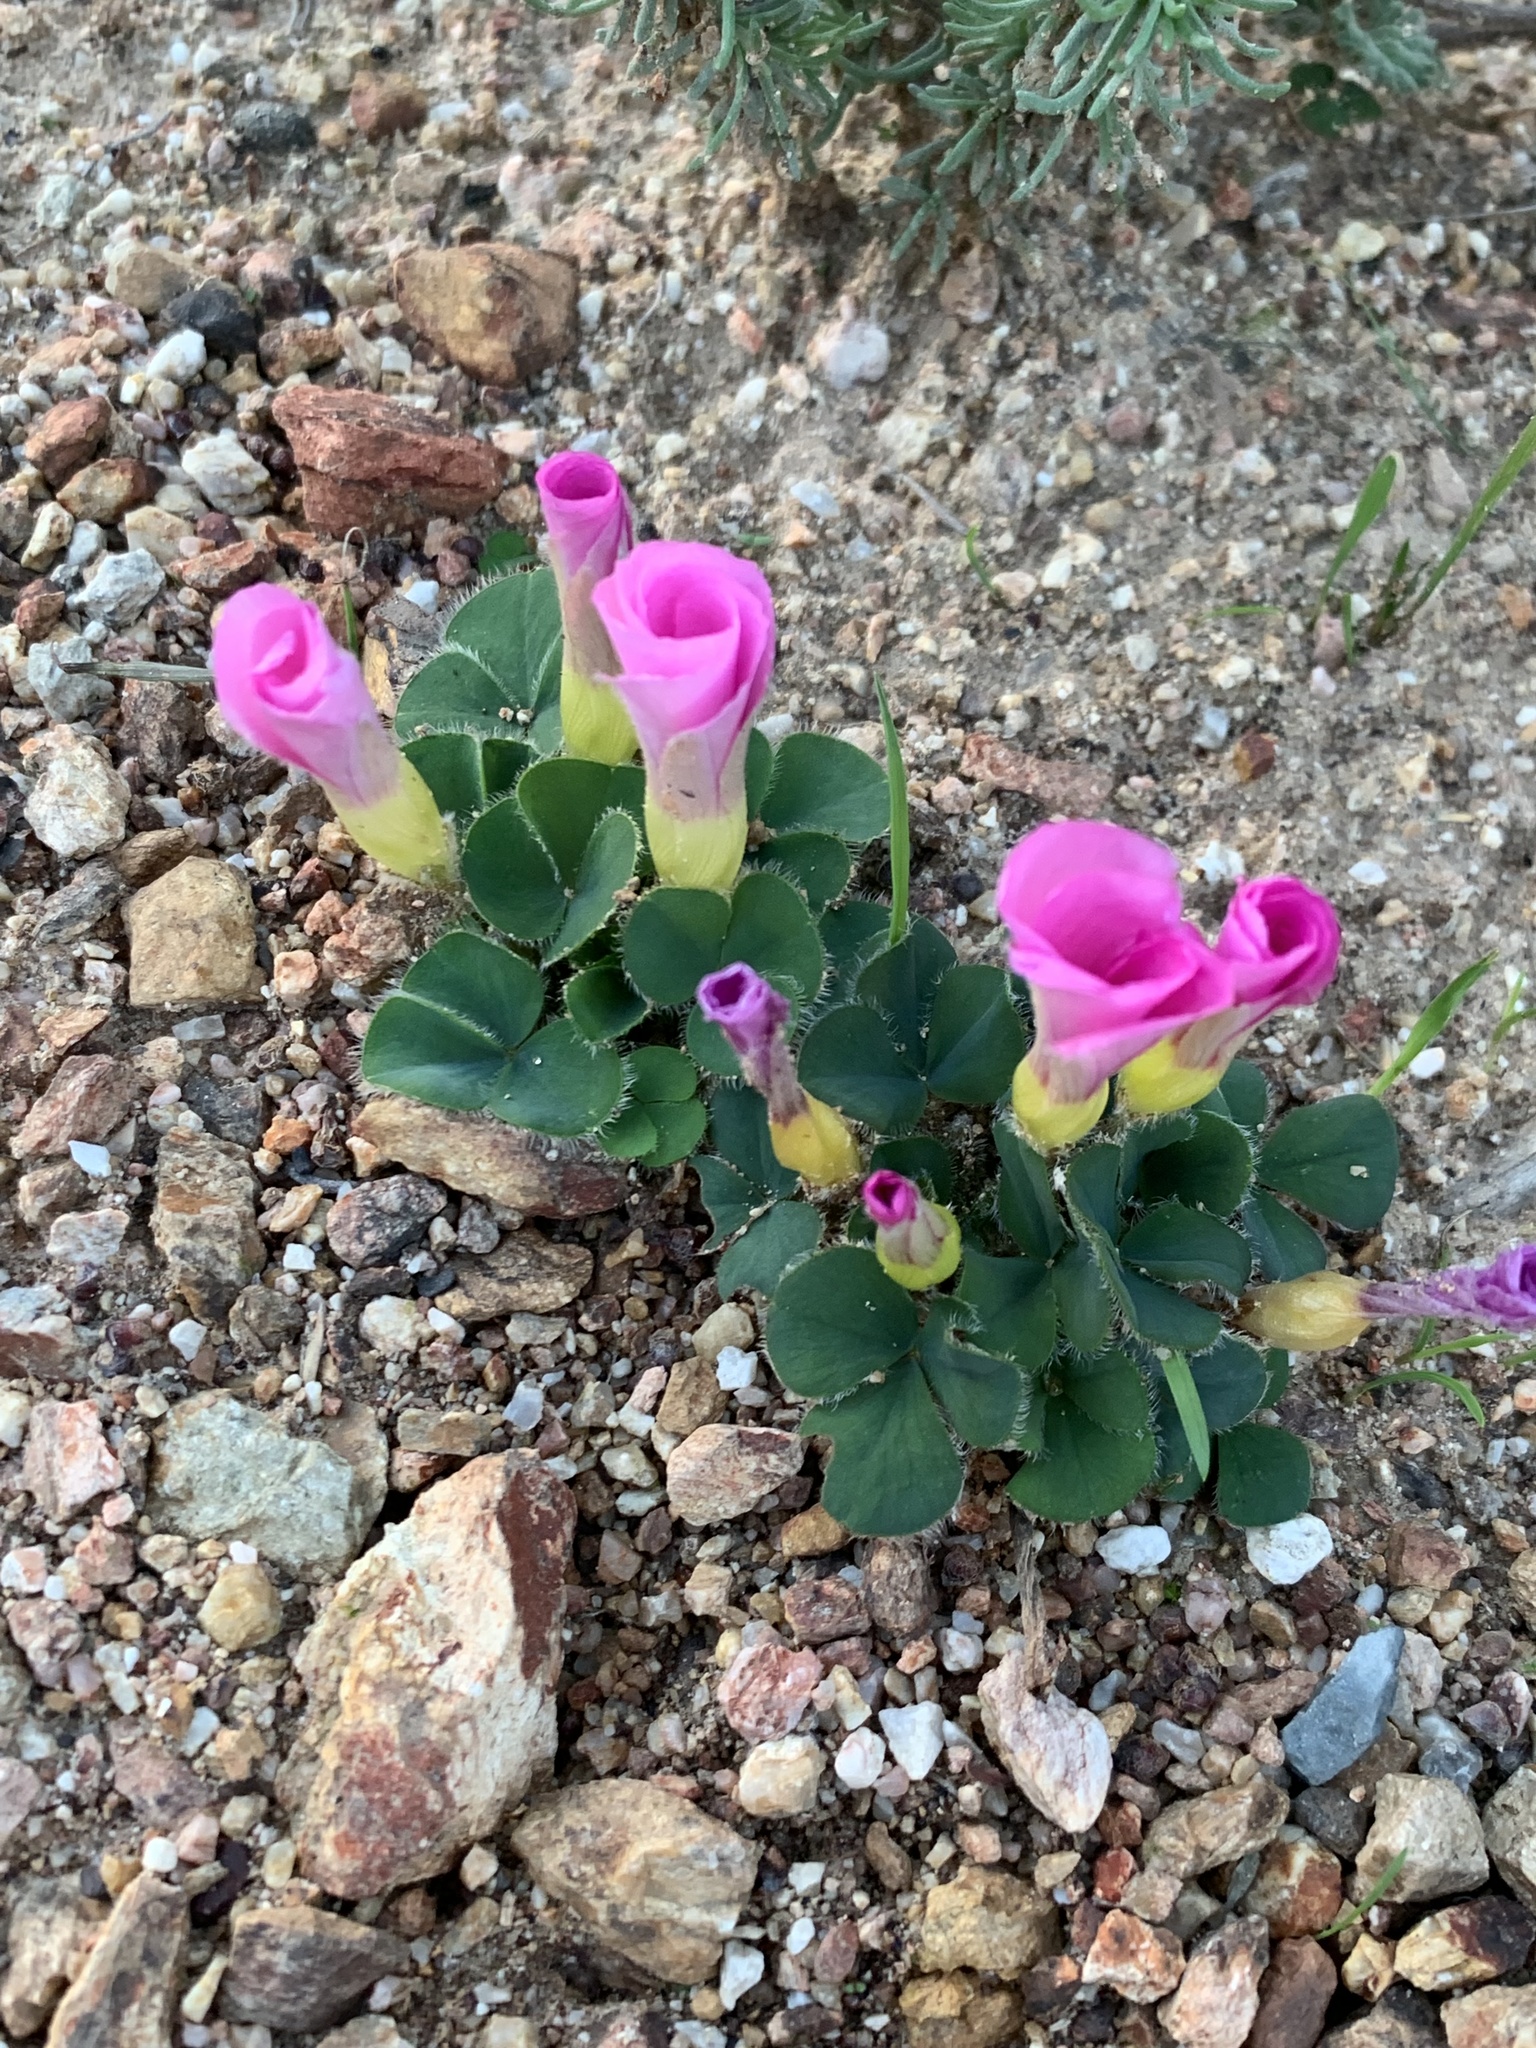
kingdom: Plantae
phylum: Tracheophyta
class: Magnoliopsida
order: Oxalidales
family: Oxalidaceae
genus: Oxalis
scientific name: Oxalis purpurea
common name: Purple woodsorrel
